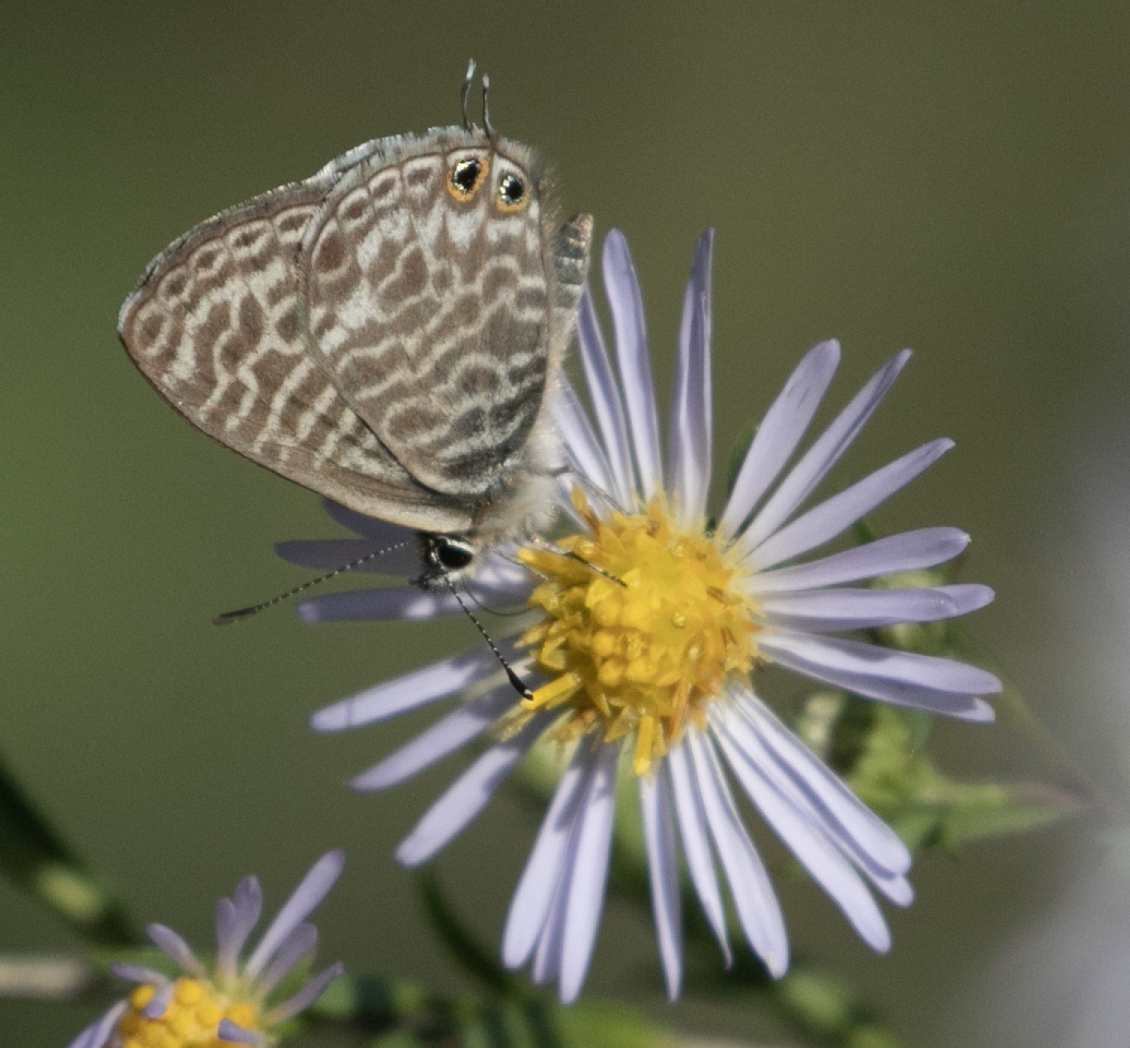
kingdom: Animalia
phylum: Arthropoda
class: Insecta
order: Lepidoptera
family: Lycaenidae
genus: Leptotes
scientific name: Leptotes pirithous
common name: Lang's short-tailed blue
